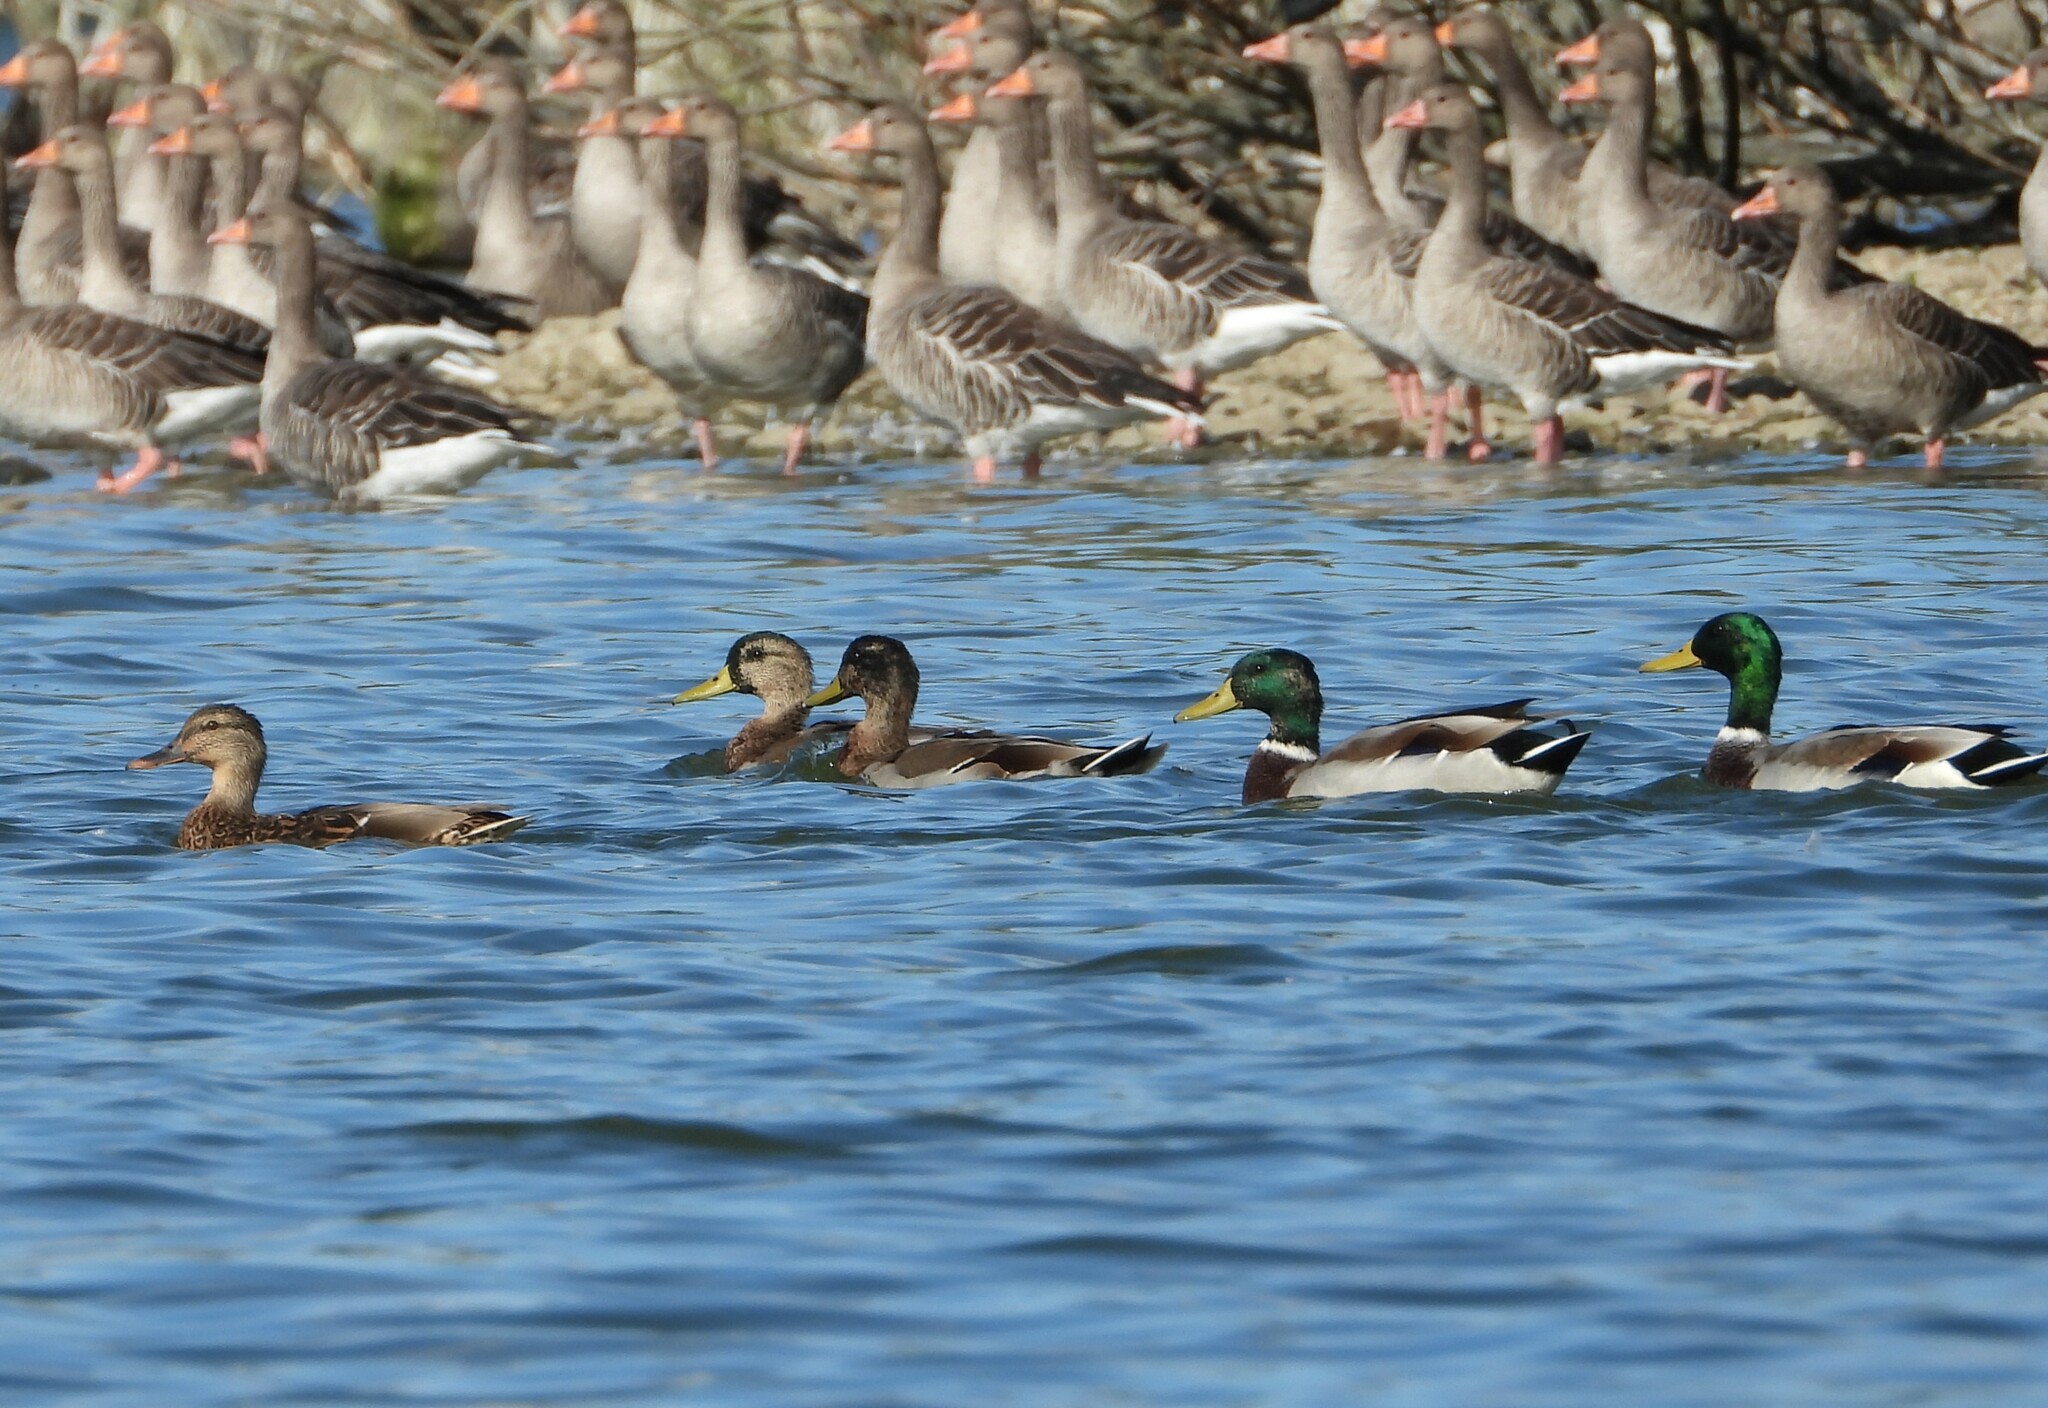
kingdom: Animalia
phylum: Chordata
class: Aves
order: Anseriformes
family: Anatidae
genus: Anas
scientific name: Anas platyrhynchos
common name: Mallard
